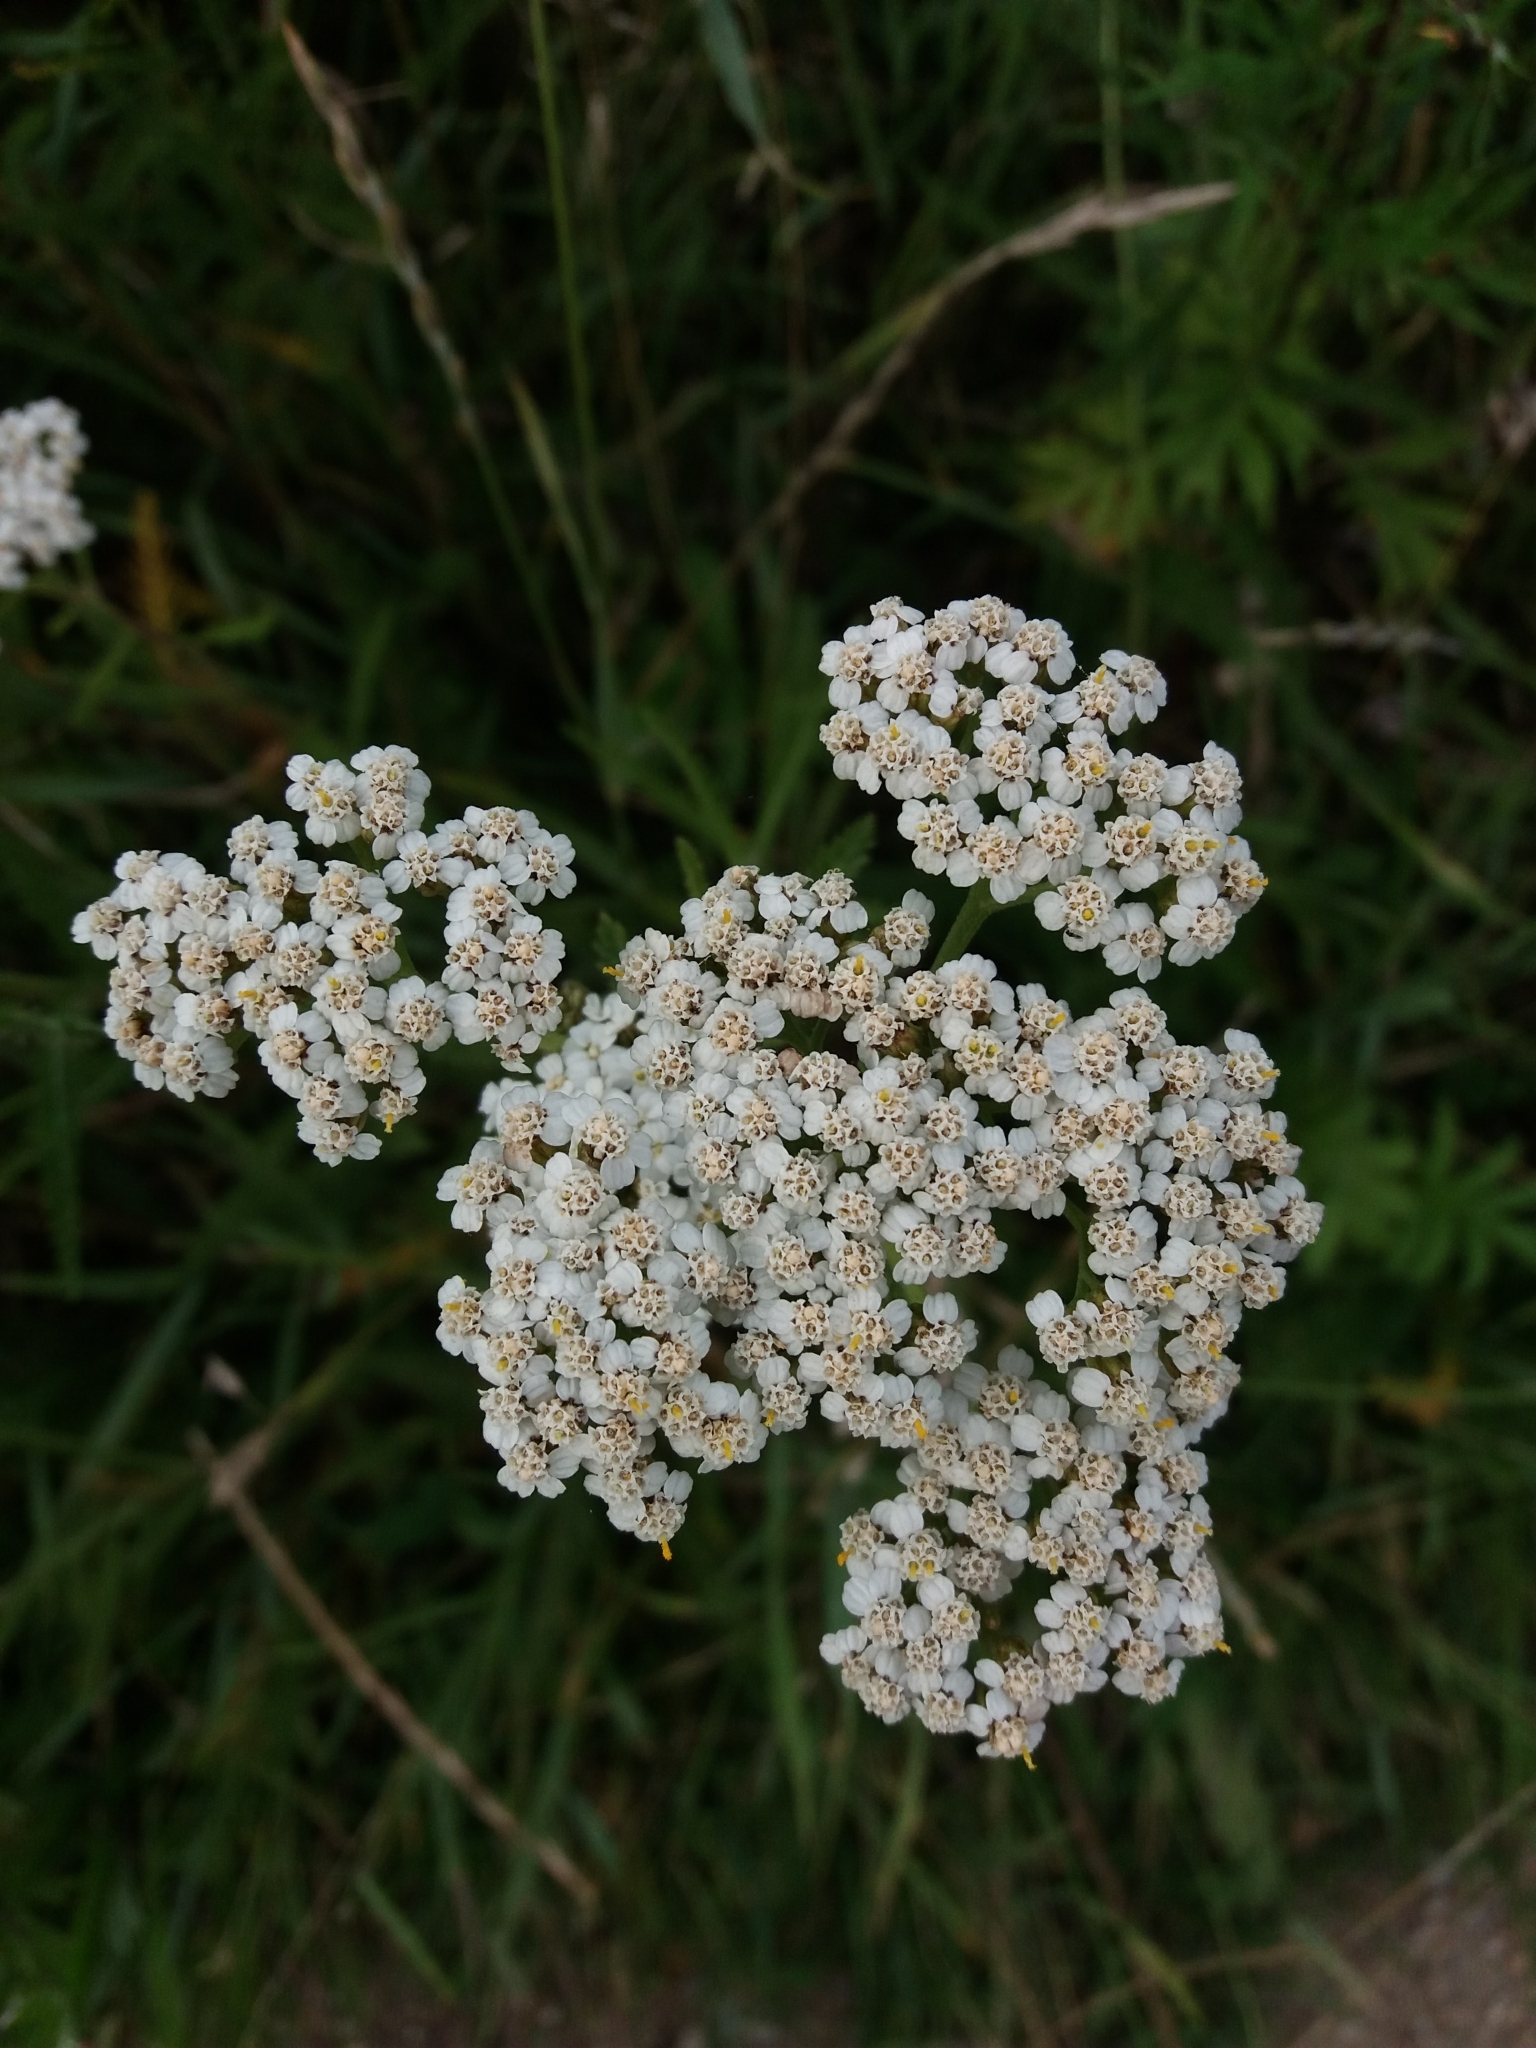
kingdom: Plantae
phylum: Tracheophyta
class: Magnoliopsida
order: Asterales
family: Asteraceae
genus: Achillea
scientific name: Achillea millefolium
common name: Yarrow
